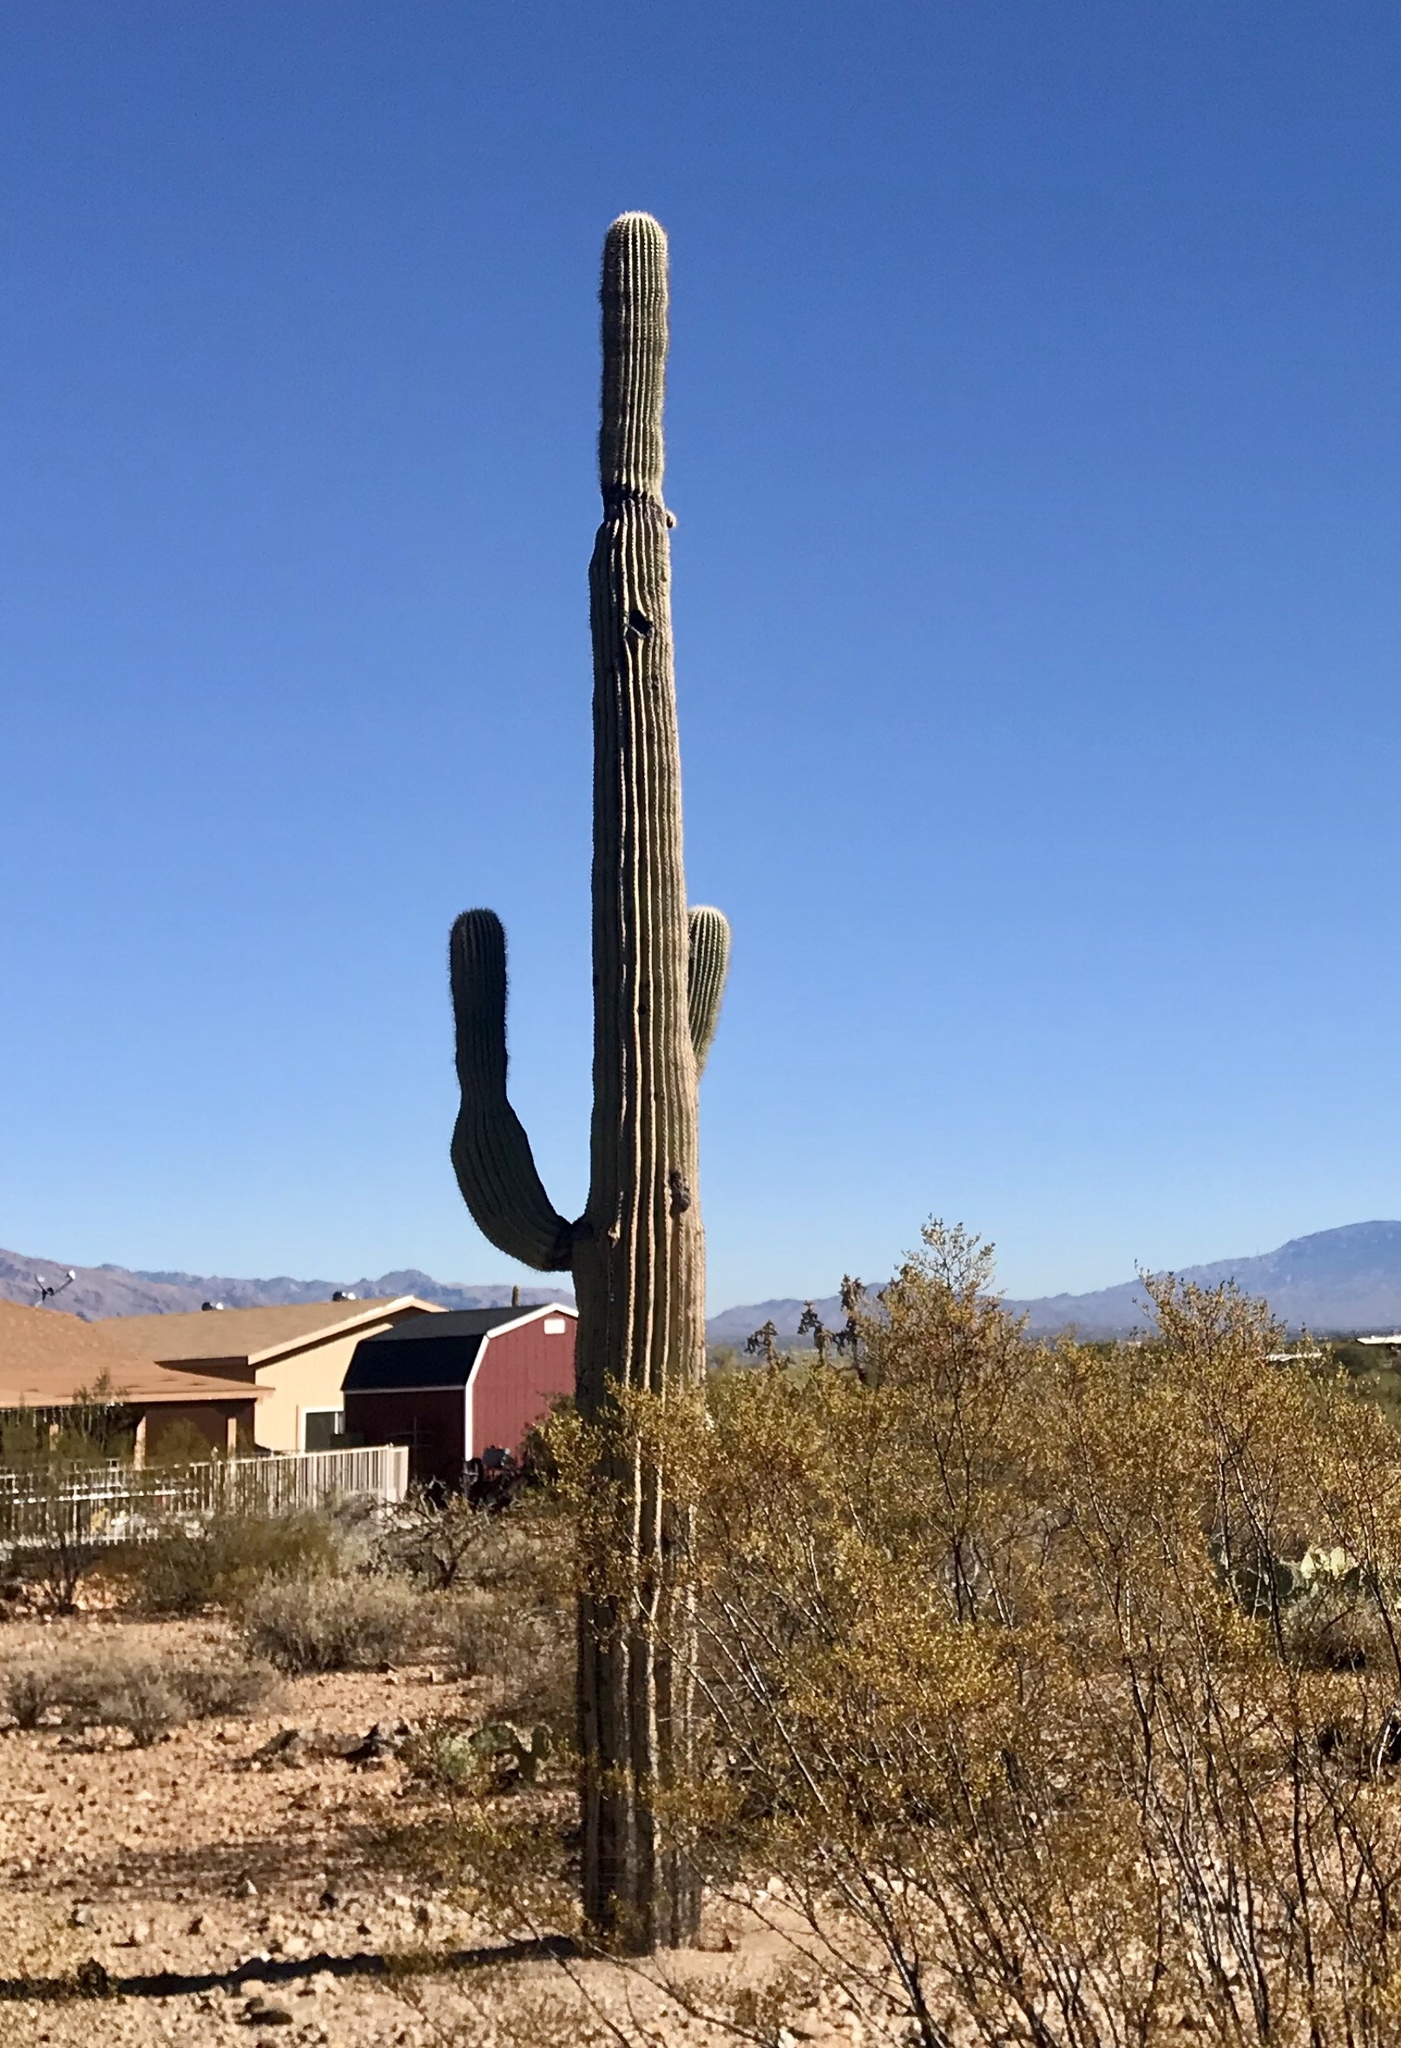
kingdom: Plantae
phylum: Tracheophyta
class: Magnoliopsida
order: Caryophyllales
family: Cactaceae
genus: Carnegiea
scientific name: Carnegiea gigantea
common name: Saguaro
